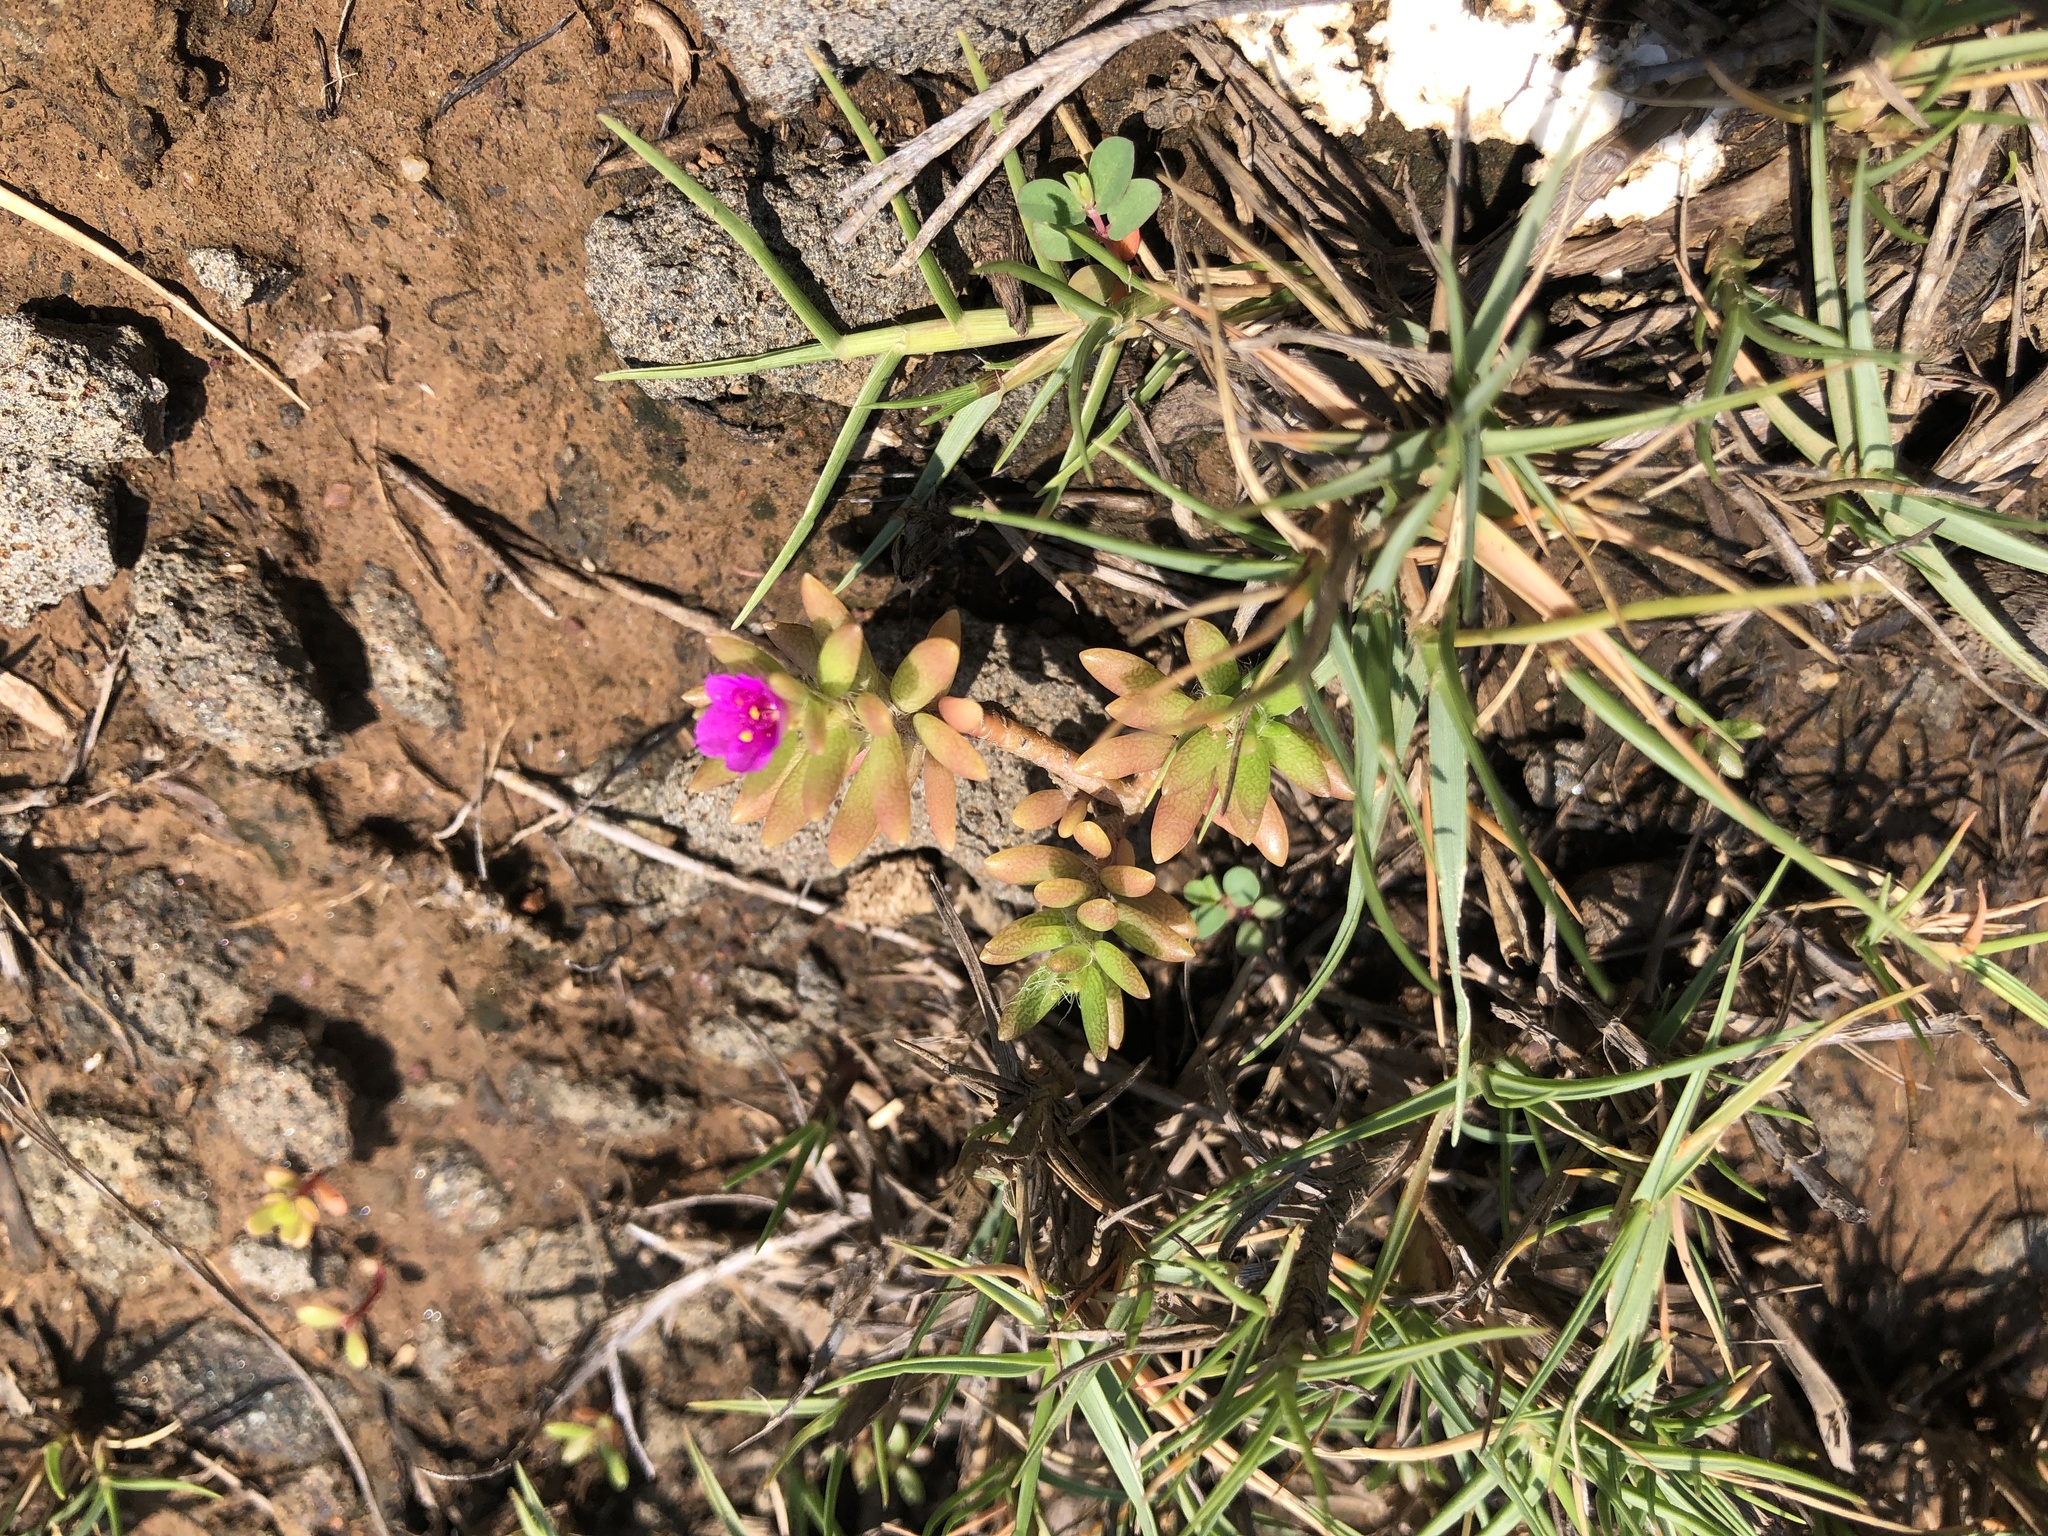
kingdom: Plantae
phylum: Tracheophyta
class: Magnoliopsida
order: Caryophyllales
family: Portulacaceae
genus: Portulaca
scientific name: Portulaca pilosa
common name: Kiss me quick
